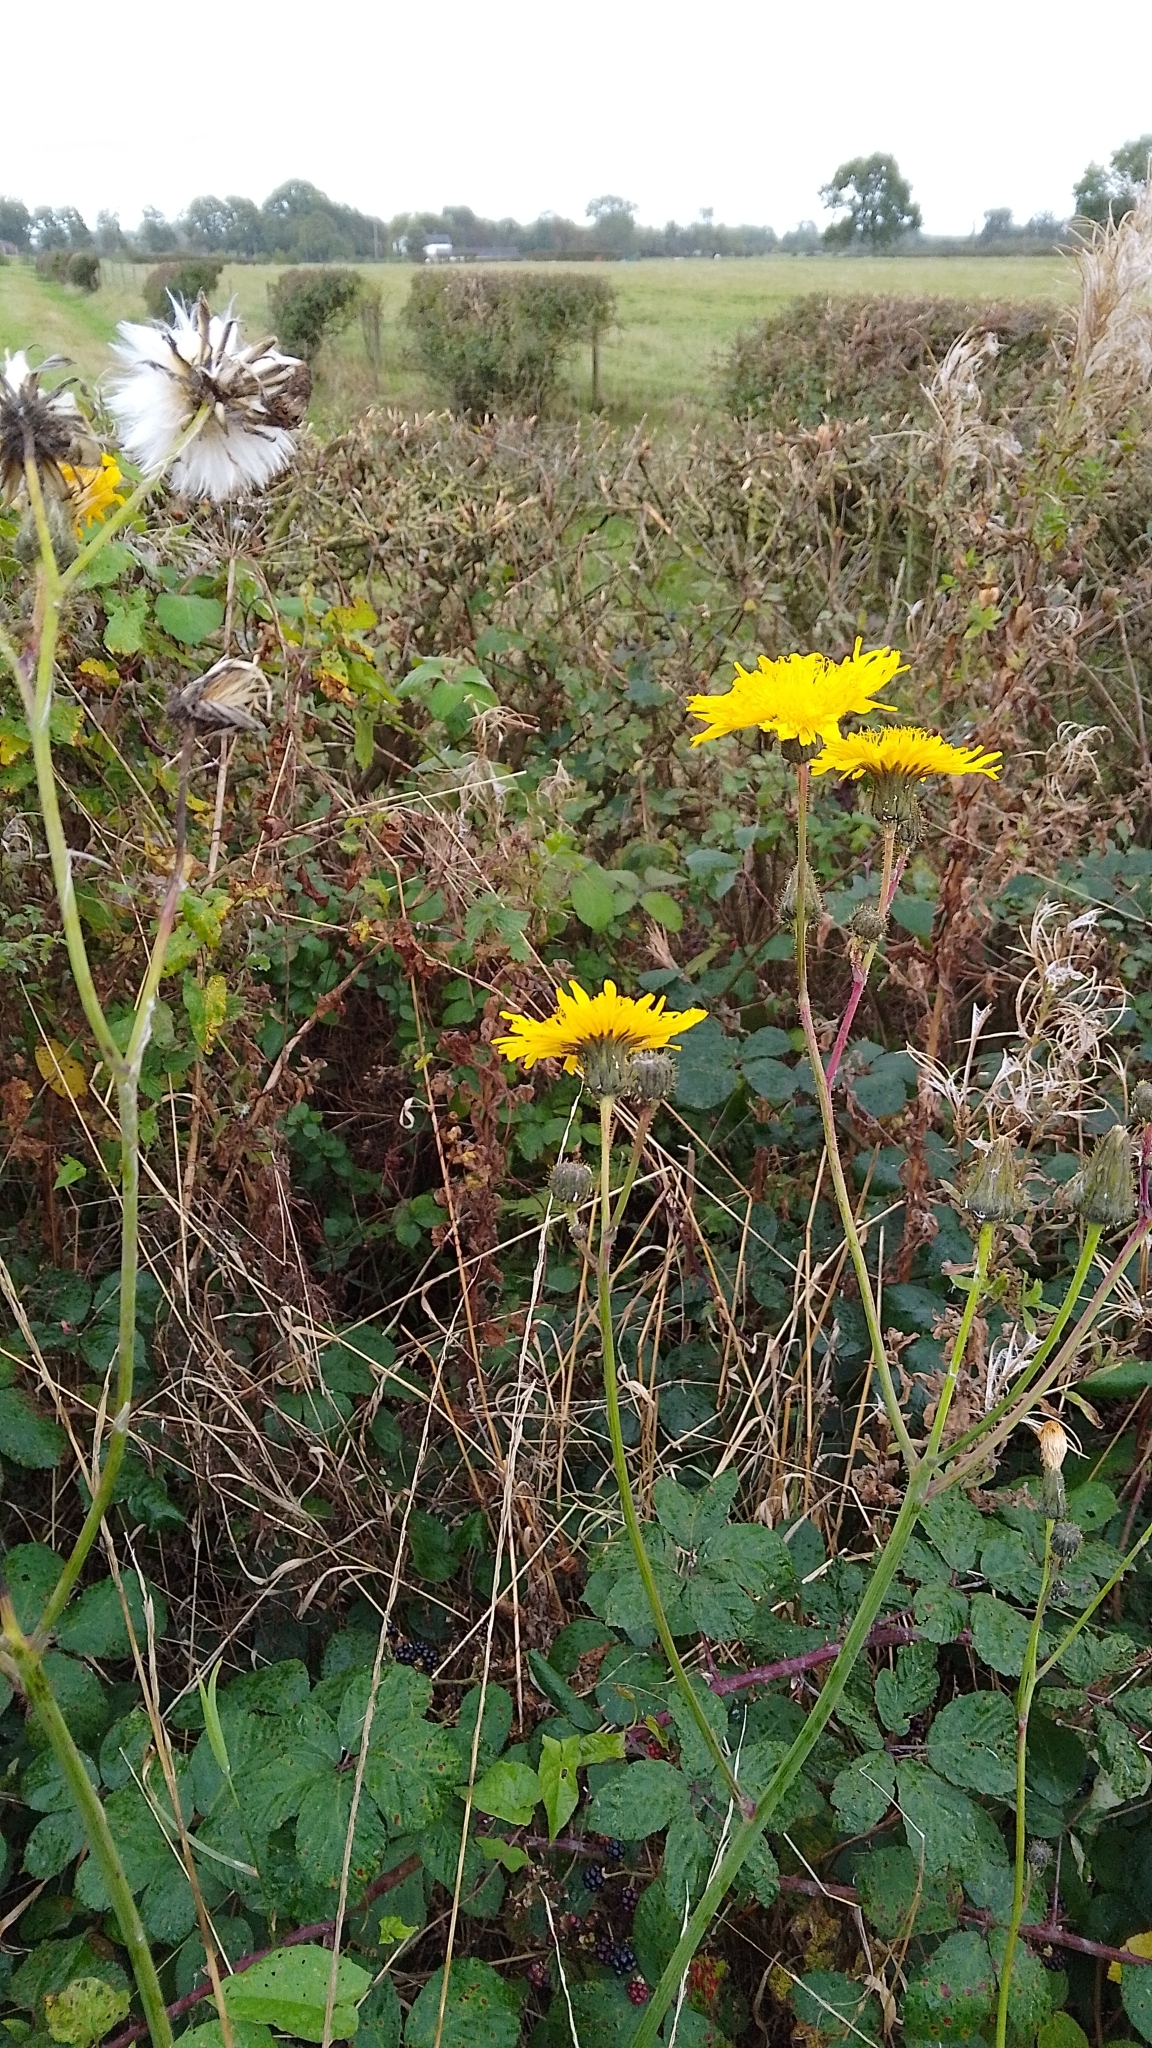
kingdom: Plantae
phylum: Tracheophyta
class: Magnoliopsida
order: Asterales
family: Asteraceae
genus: Sonchus
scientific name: Sonchus arvensis
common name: Perennial sow-thistle
